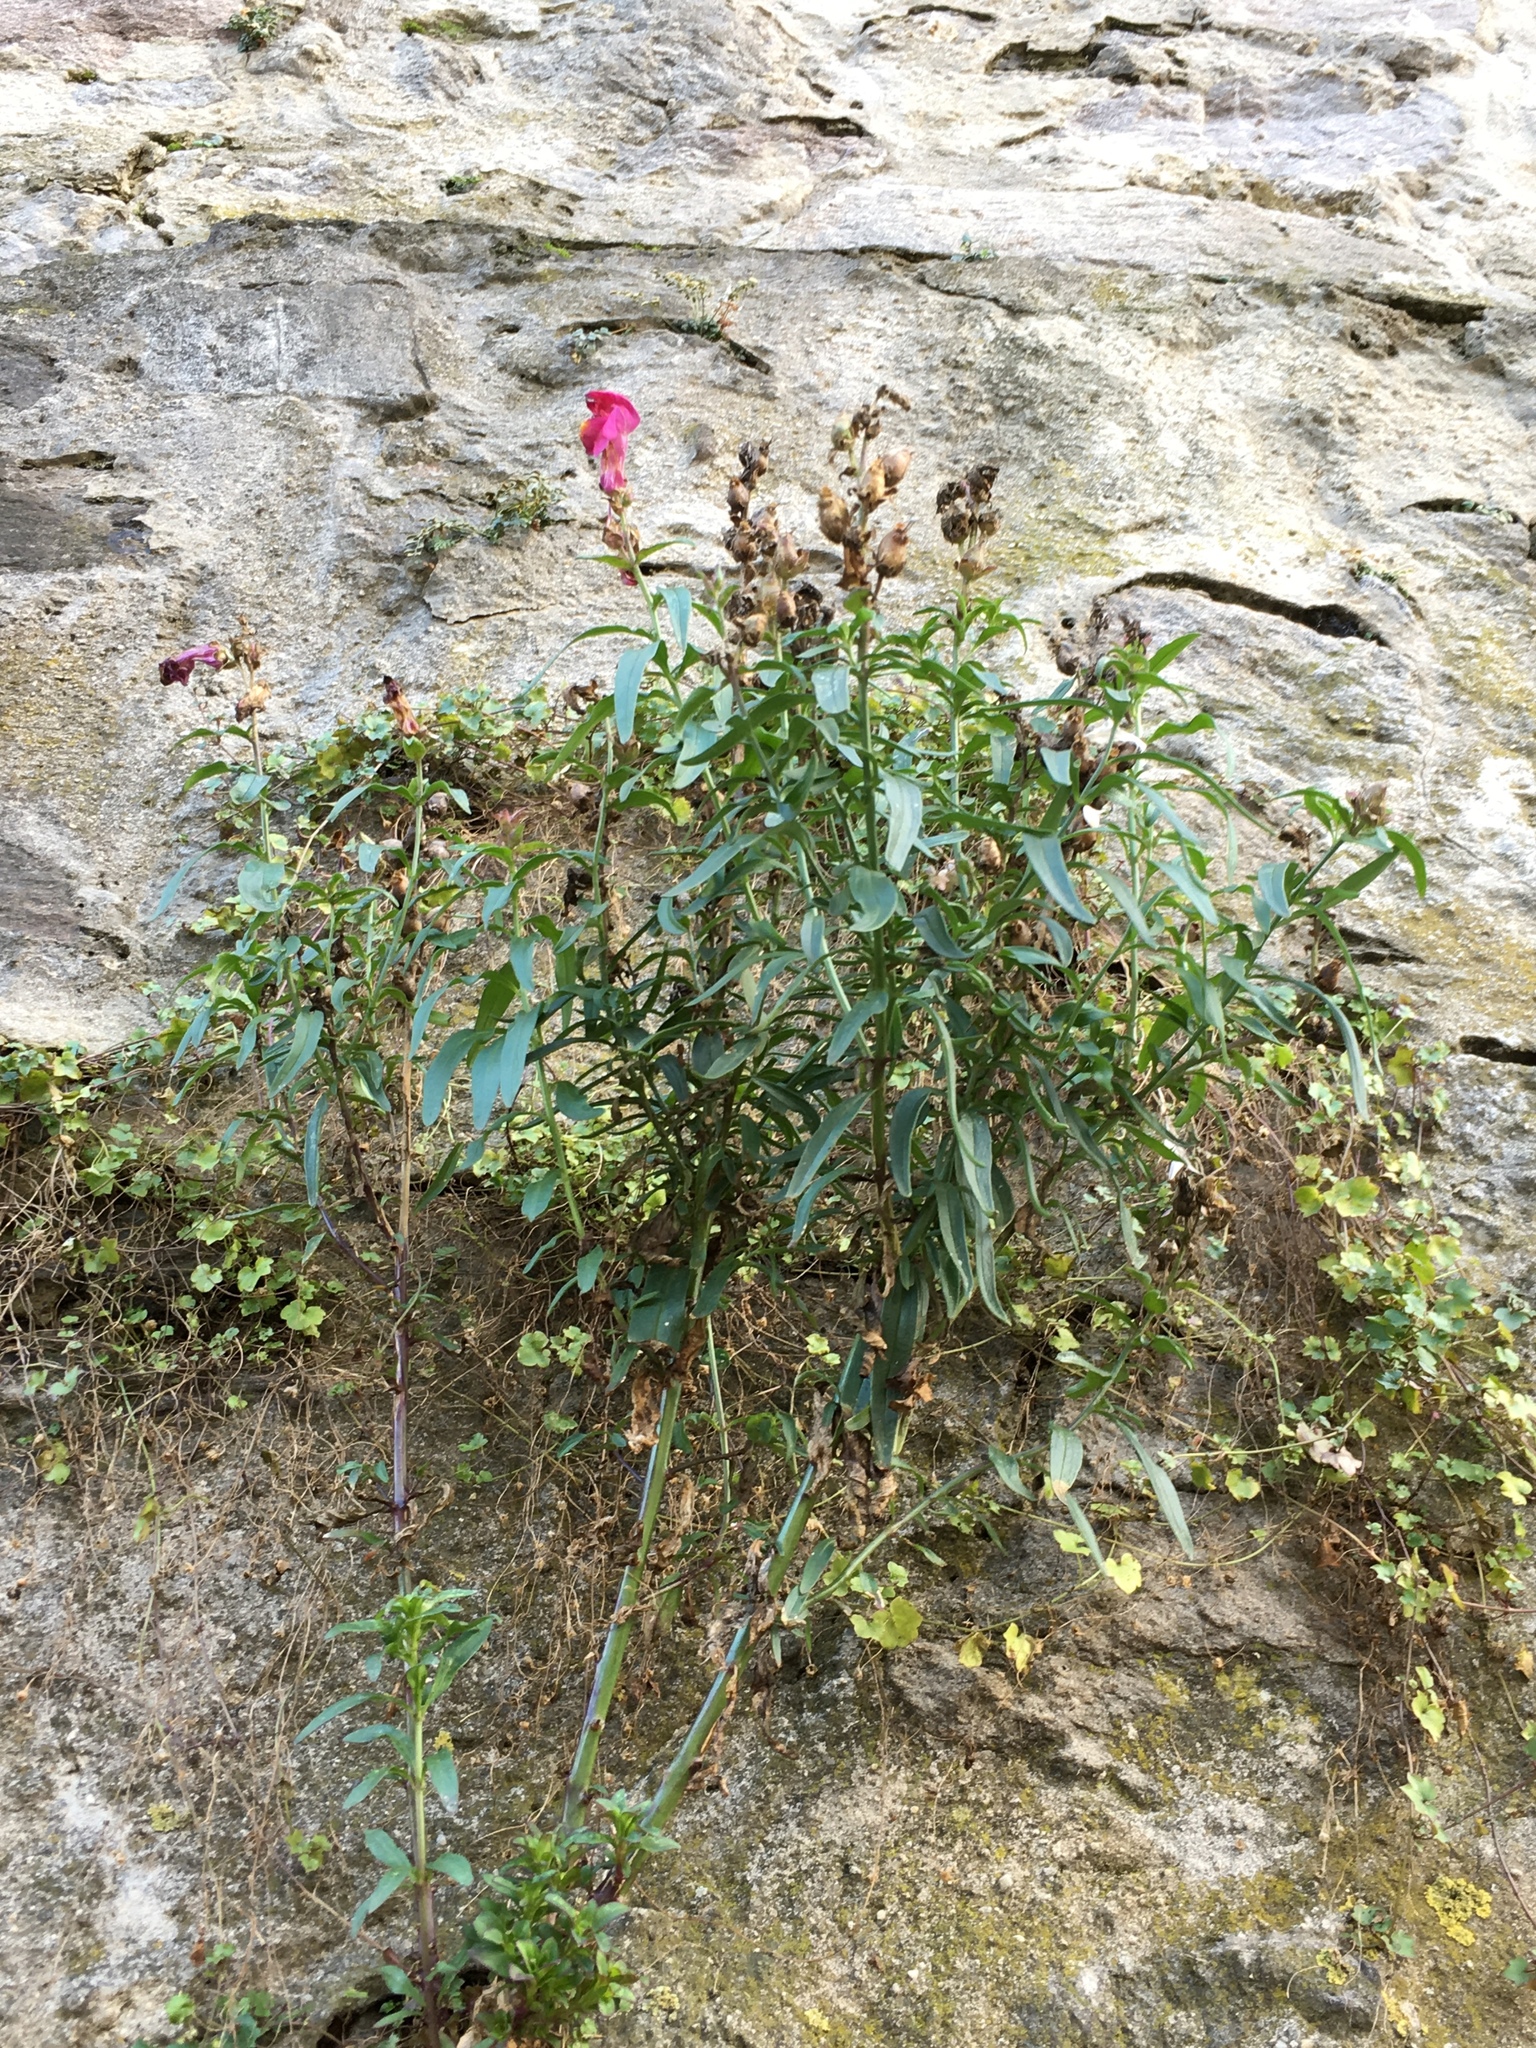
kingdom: Plantae
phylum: Tracheophyta
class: Magnoliopsida
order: Lamiales
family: Plantaginaceae
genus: Antirrhinum
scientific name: Antirrhinum majus
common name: Snapdragon
